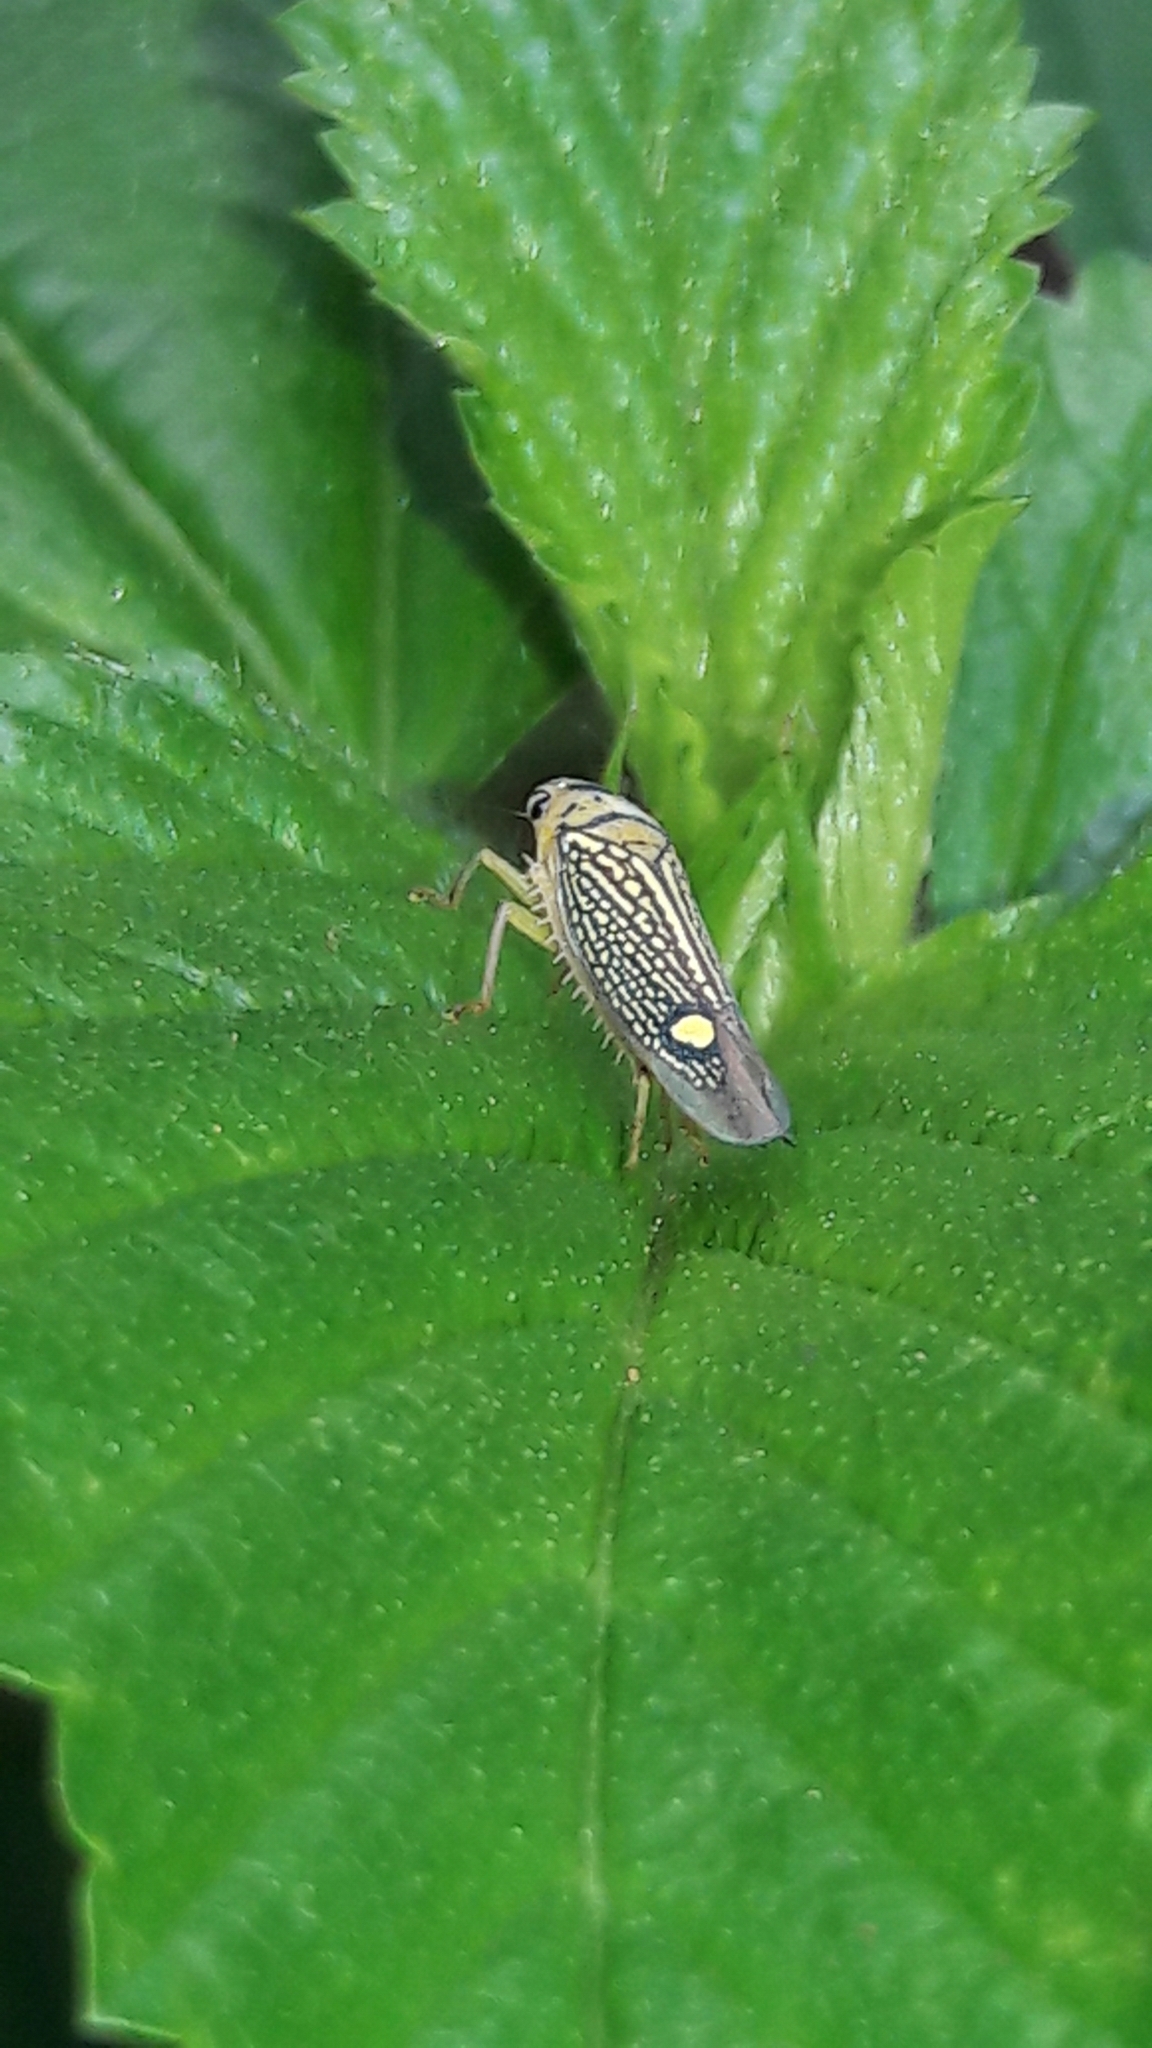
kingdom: Animalia
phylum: Arthropoda
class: Insecta
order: Hemiptera
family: Cicadellidae
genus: Parathona
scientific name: Parathona gratiosa
